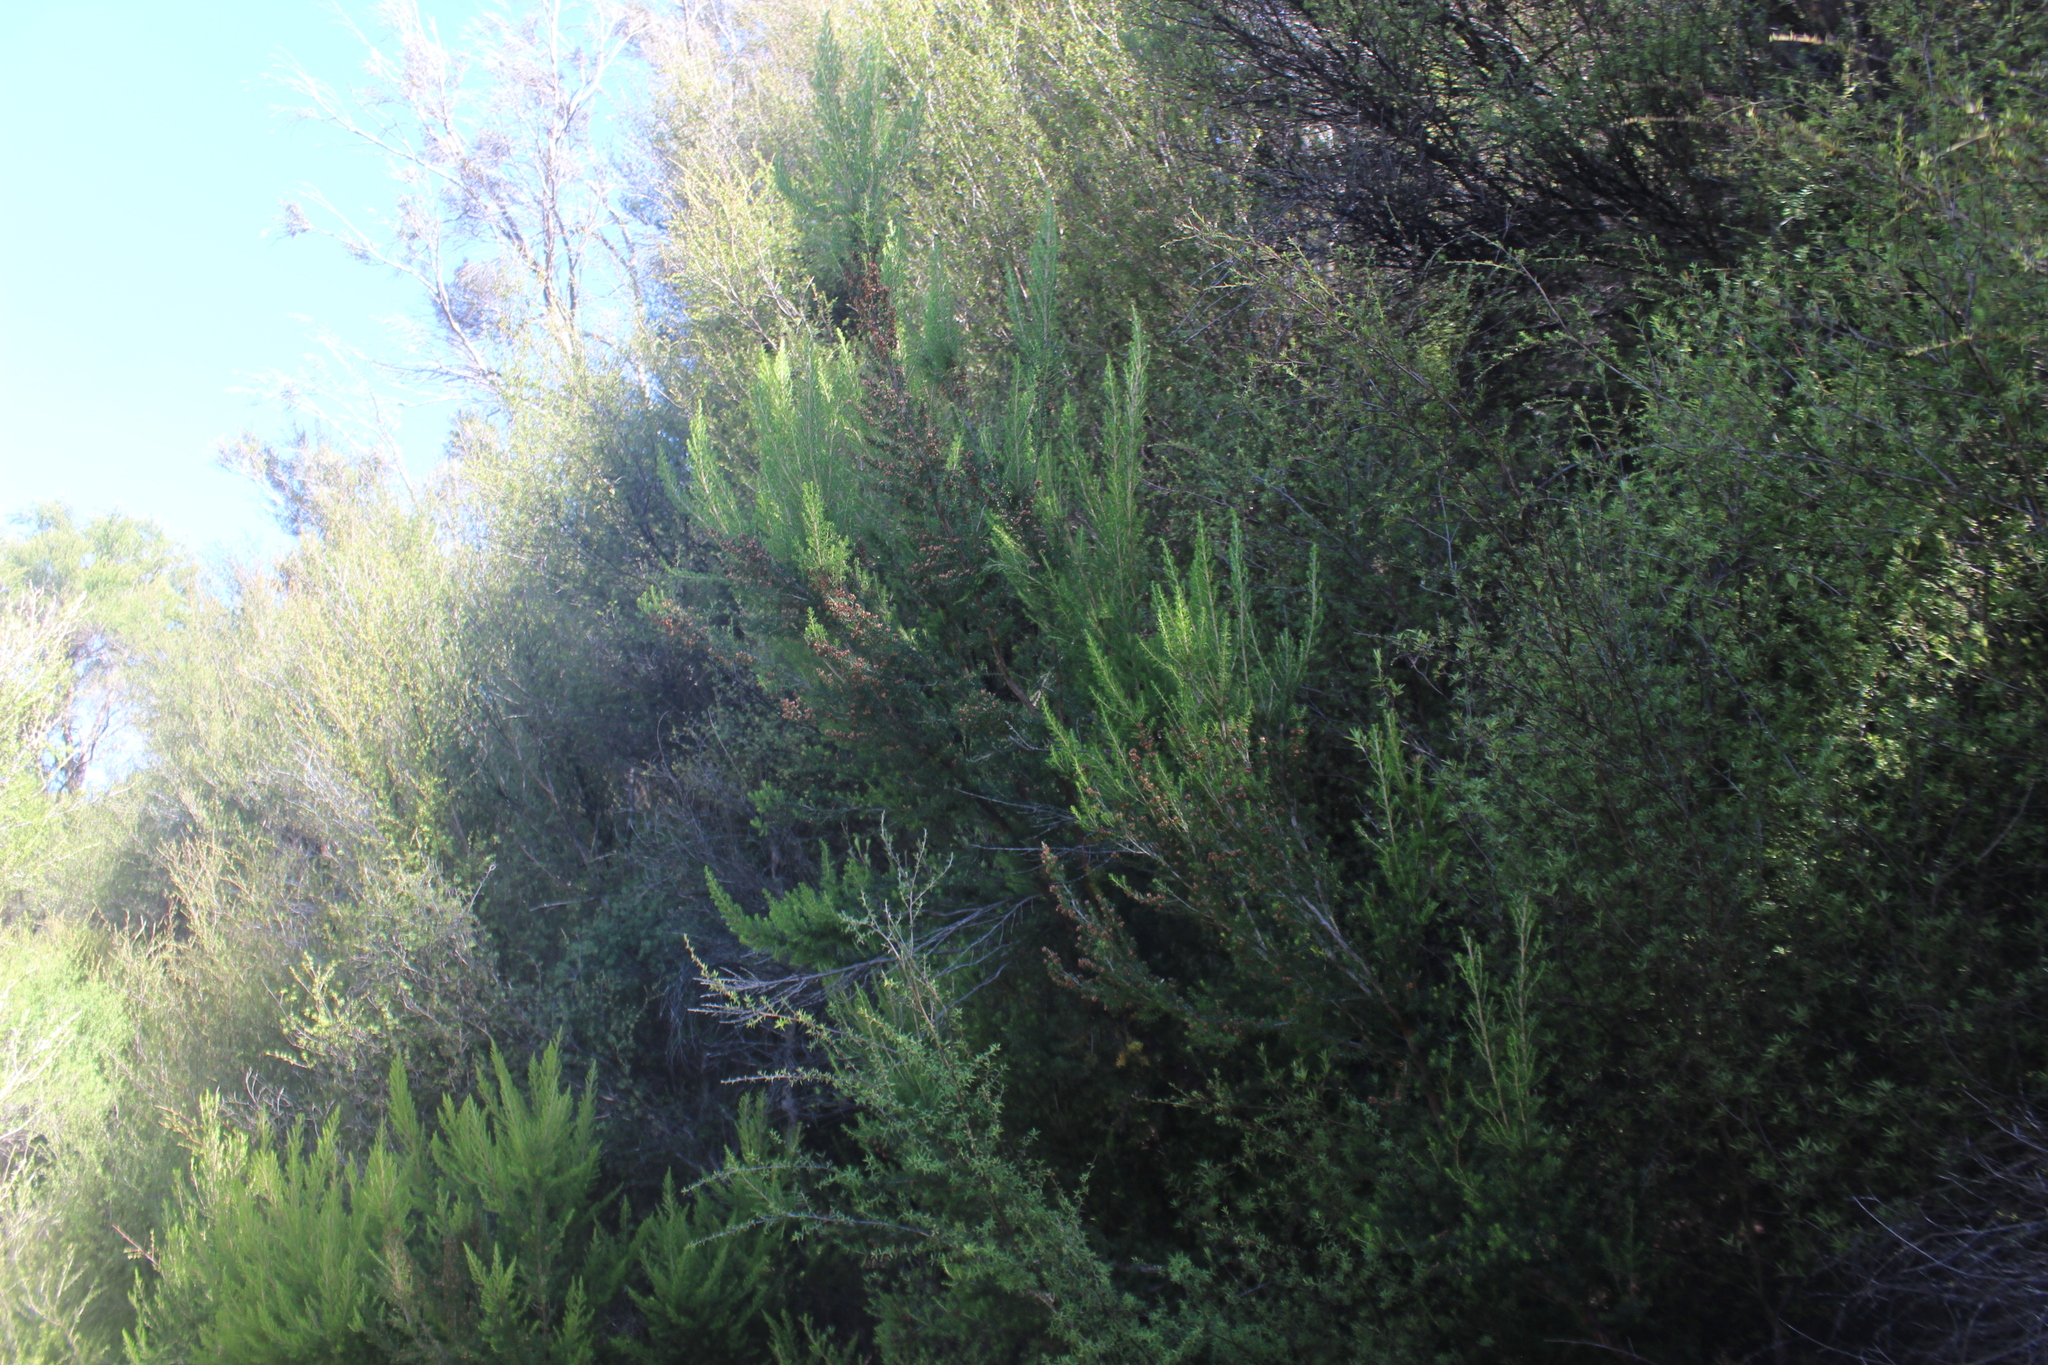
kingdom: Plantae
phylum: Tracheophyta
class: Magnoliopsida
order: Ericales
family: Ericaceae
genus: Erica
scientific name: Erica arborea
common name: Tree heath
